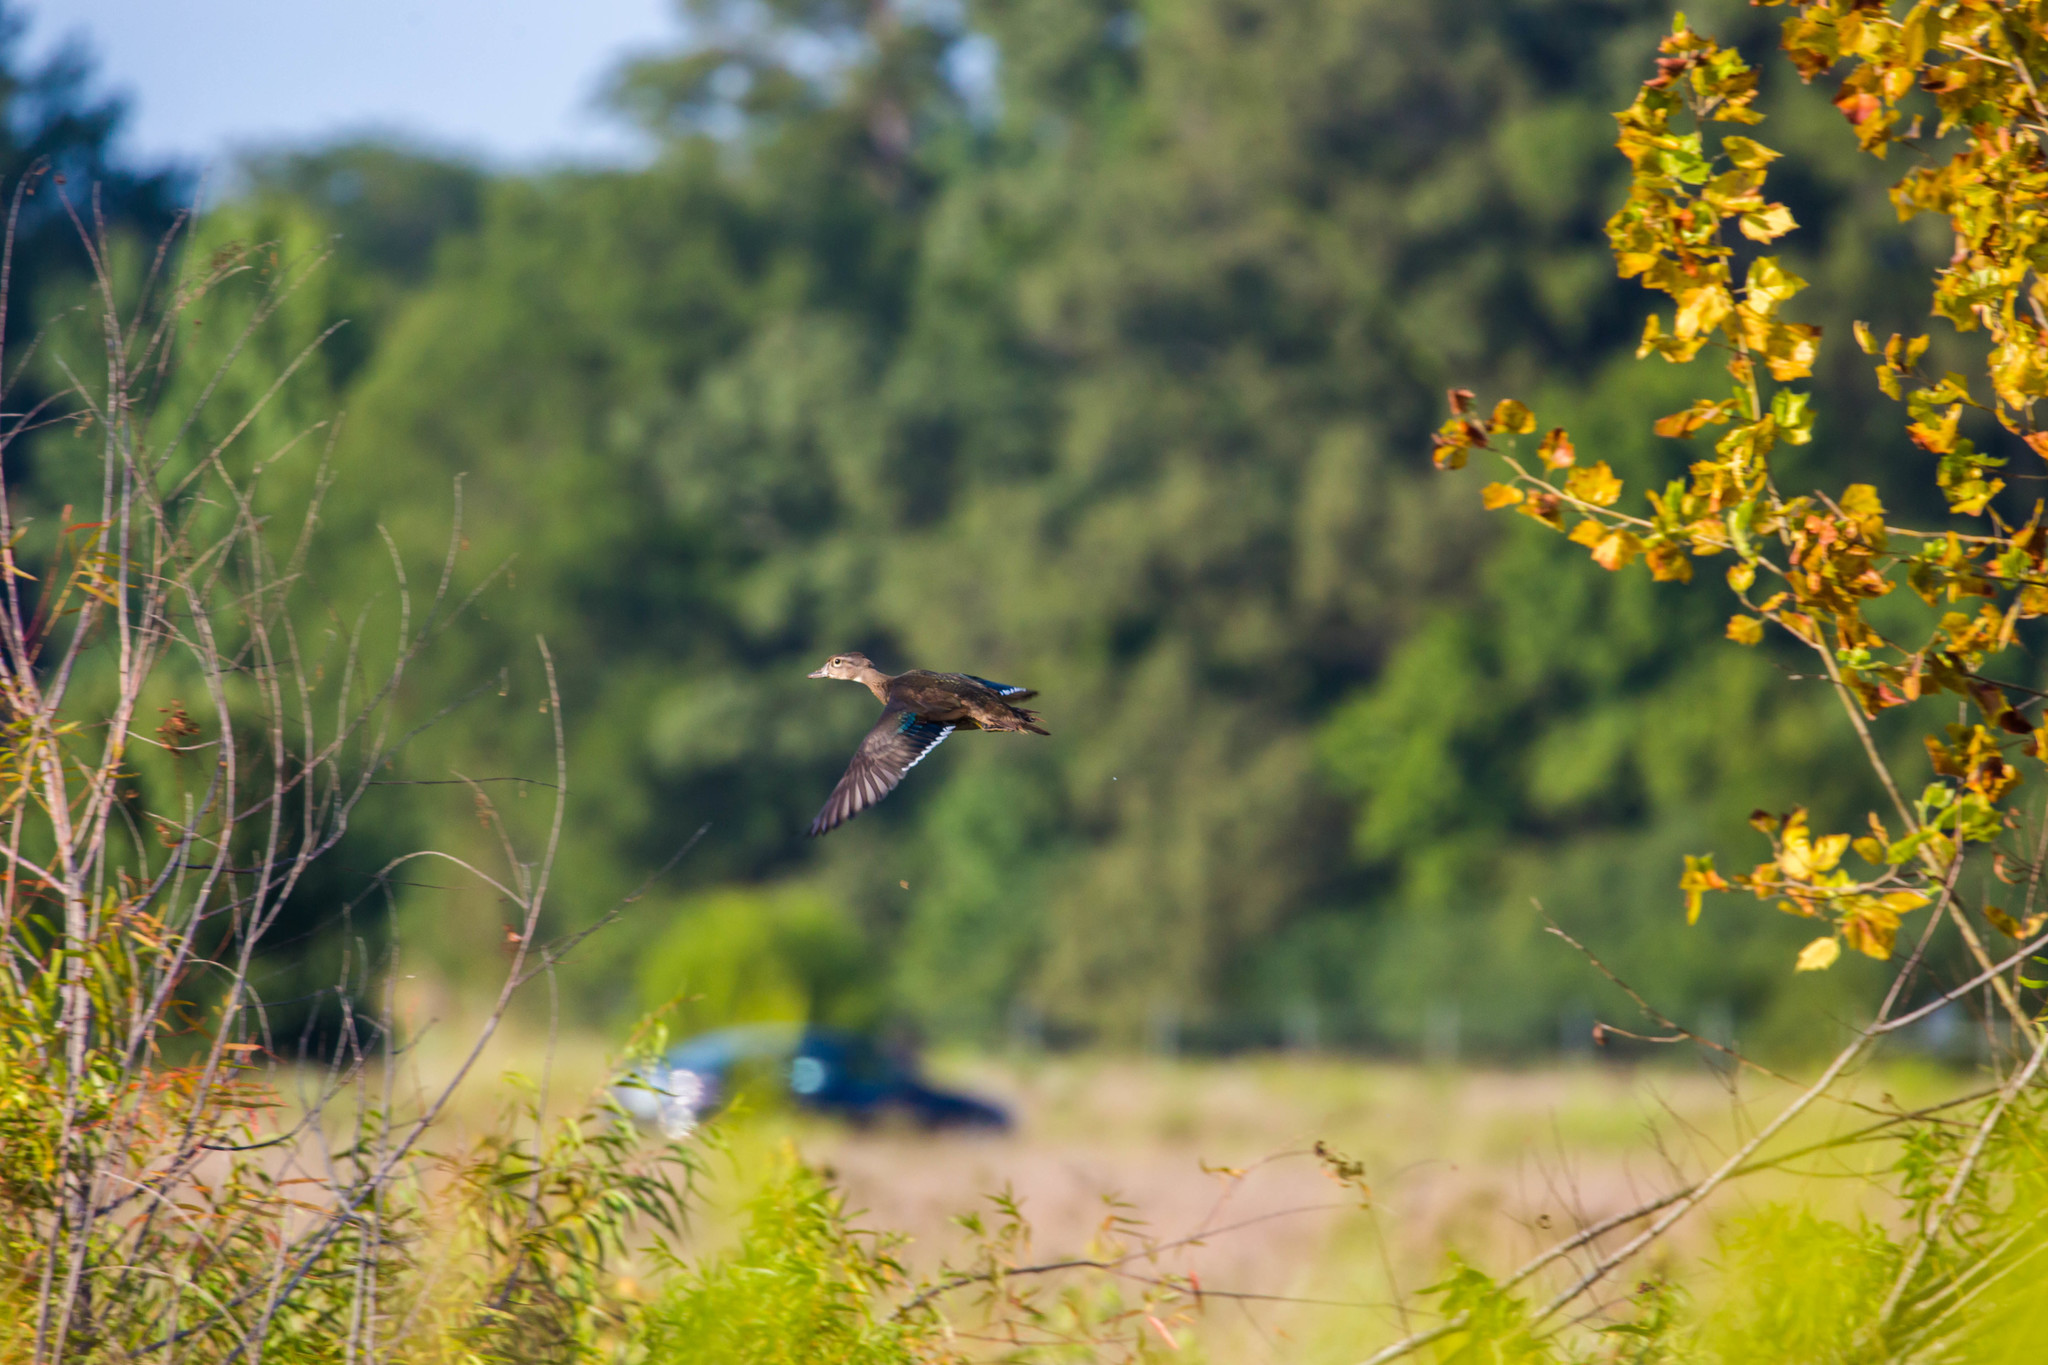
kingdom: Animalia
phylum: Chordata
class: Aves
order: Anseriformes
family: Anatidae
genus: Aix
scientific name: Aix sponsa
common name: Wood duck
